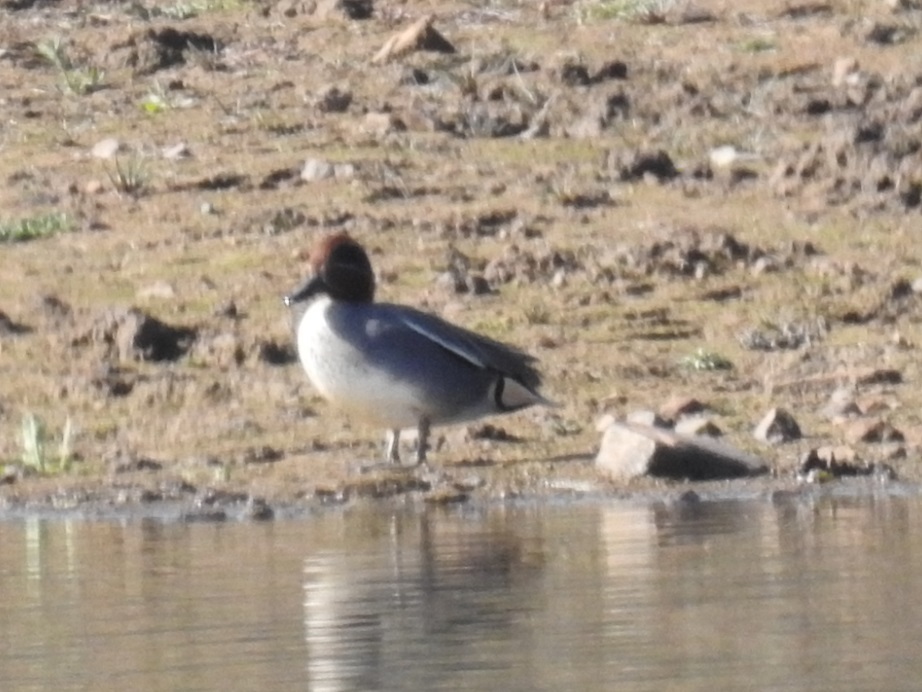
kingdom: Animalia
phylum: Chordata
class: Aves
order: Anseriformes
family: Anatidae
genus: Anas
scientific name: Anas crecca
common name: Eurasian teal
